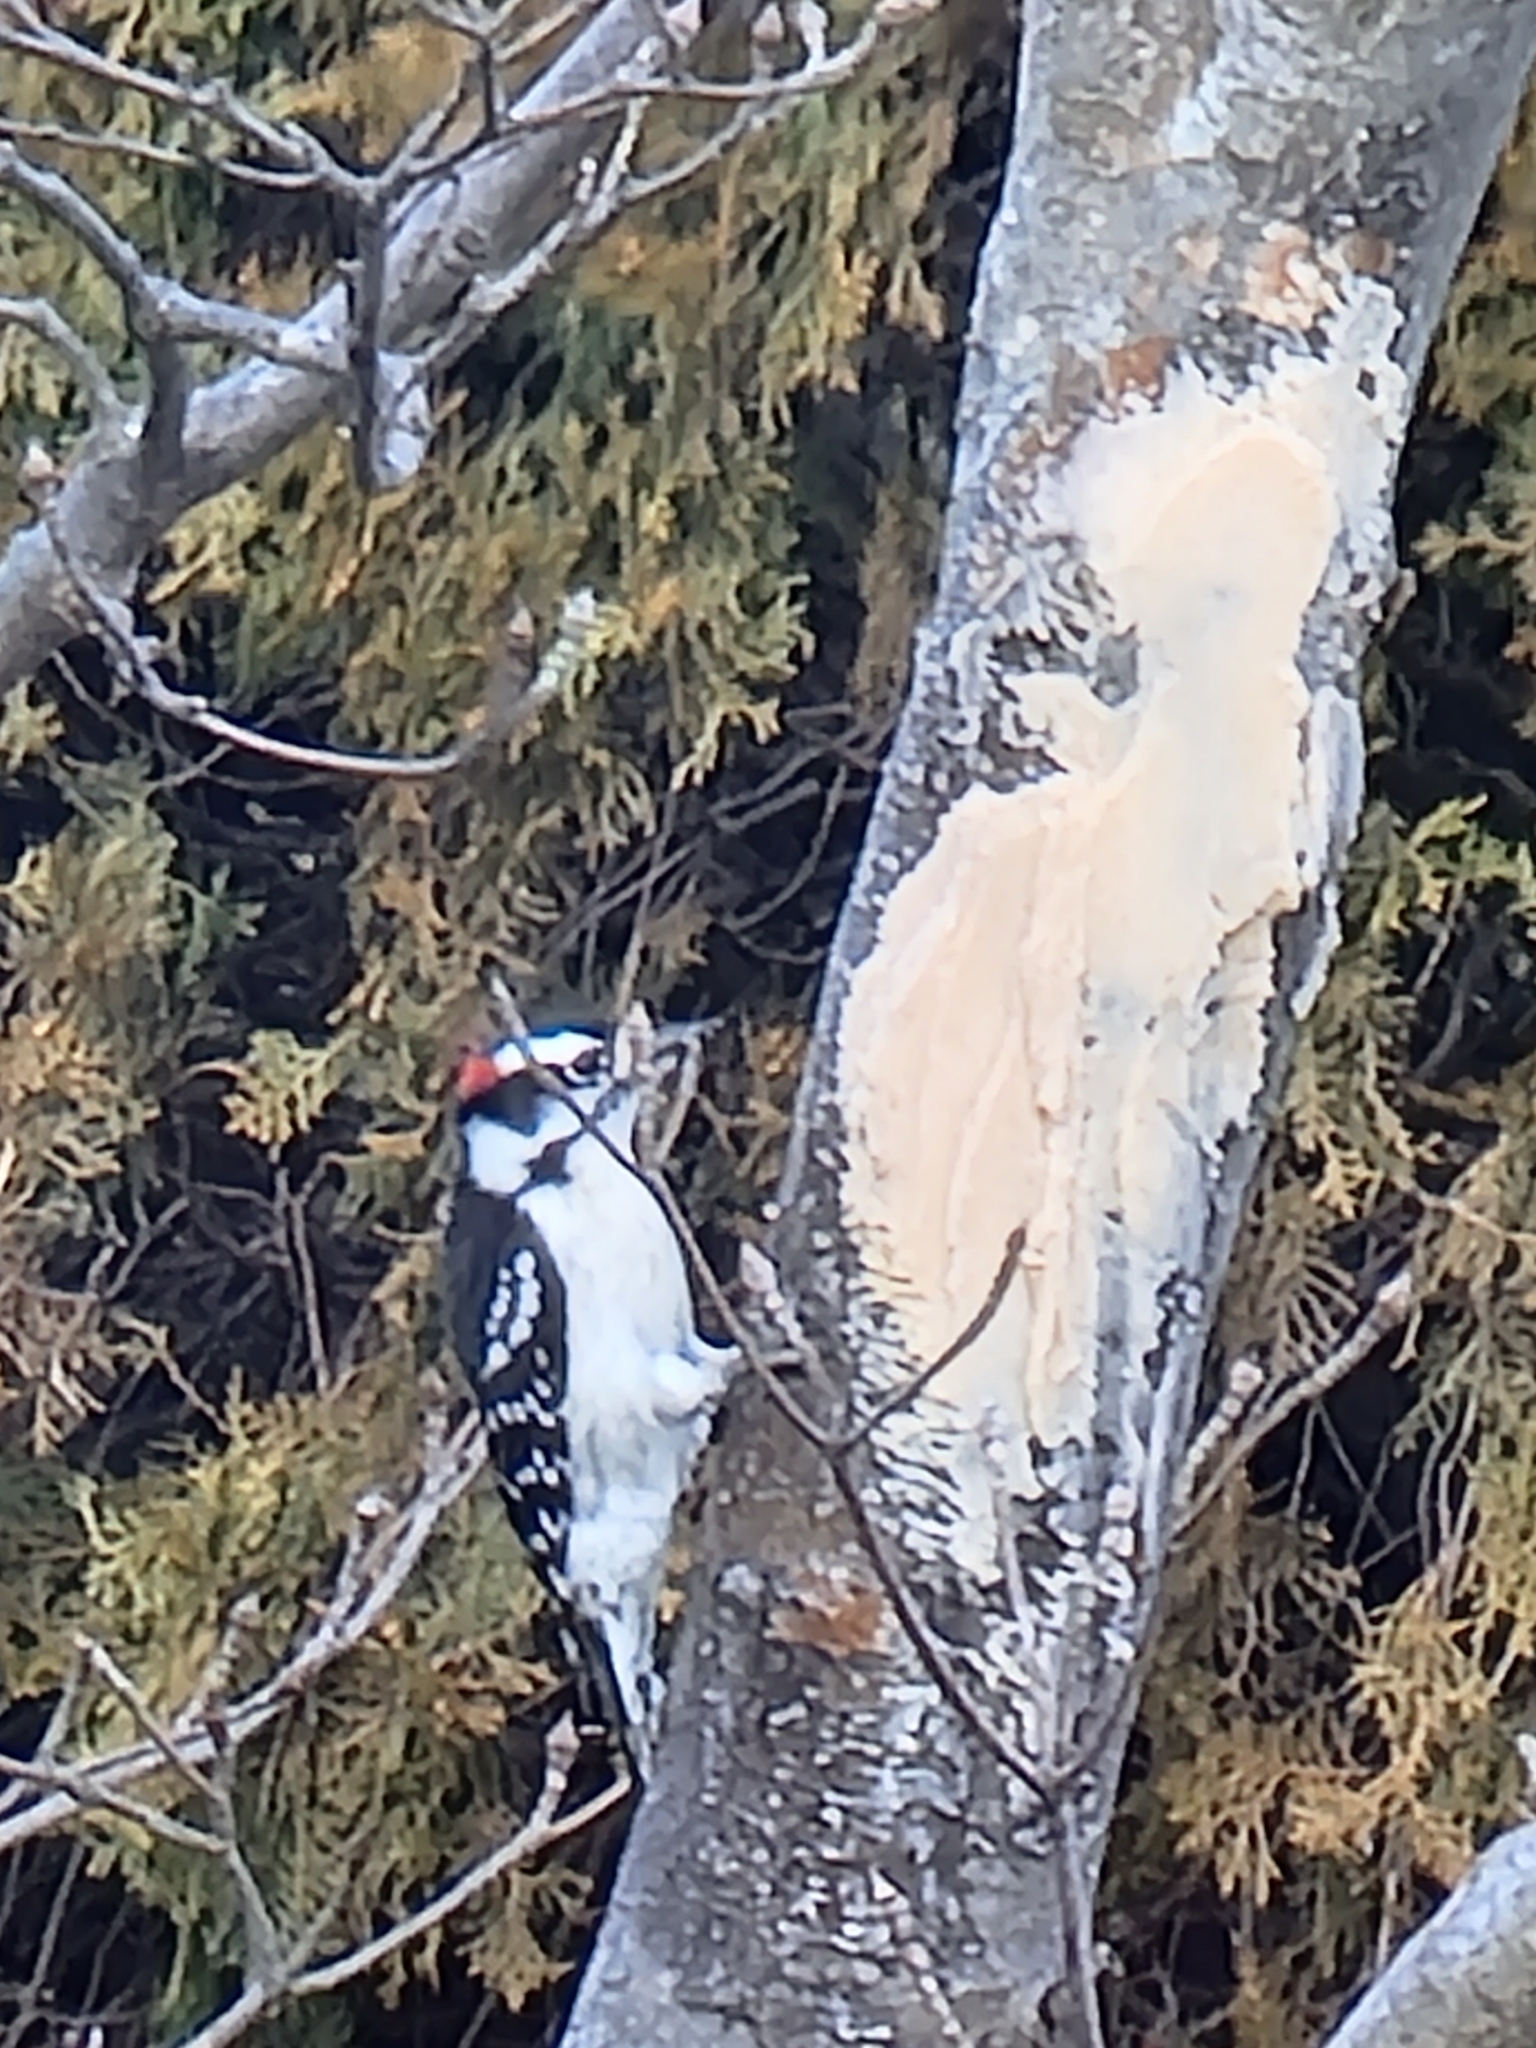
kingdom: Animalia
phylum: Chordata
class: Aves
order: Piciformes
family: Picidae
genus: Dryobates
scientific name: Dryobates pubescens
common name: Downy woodpecker
